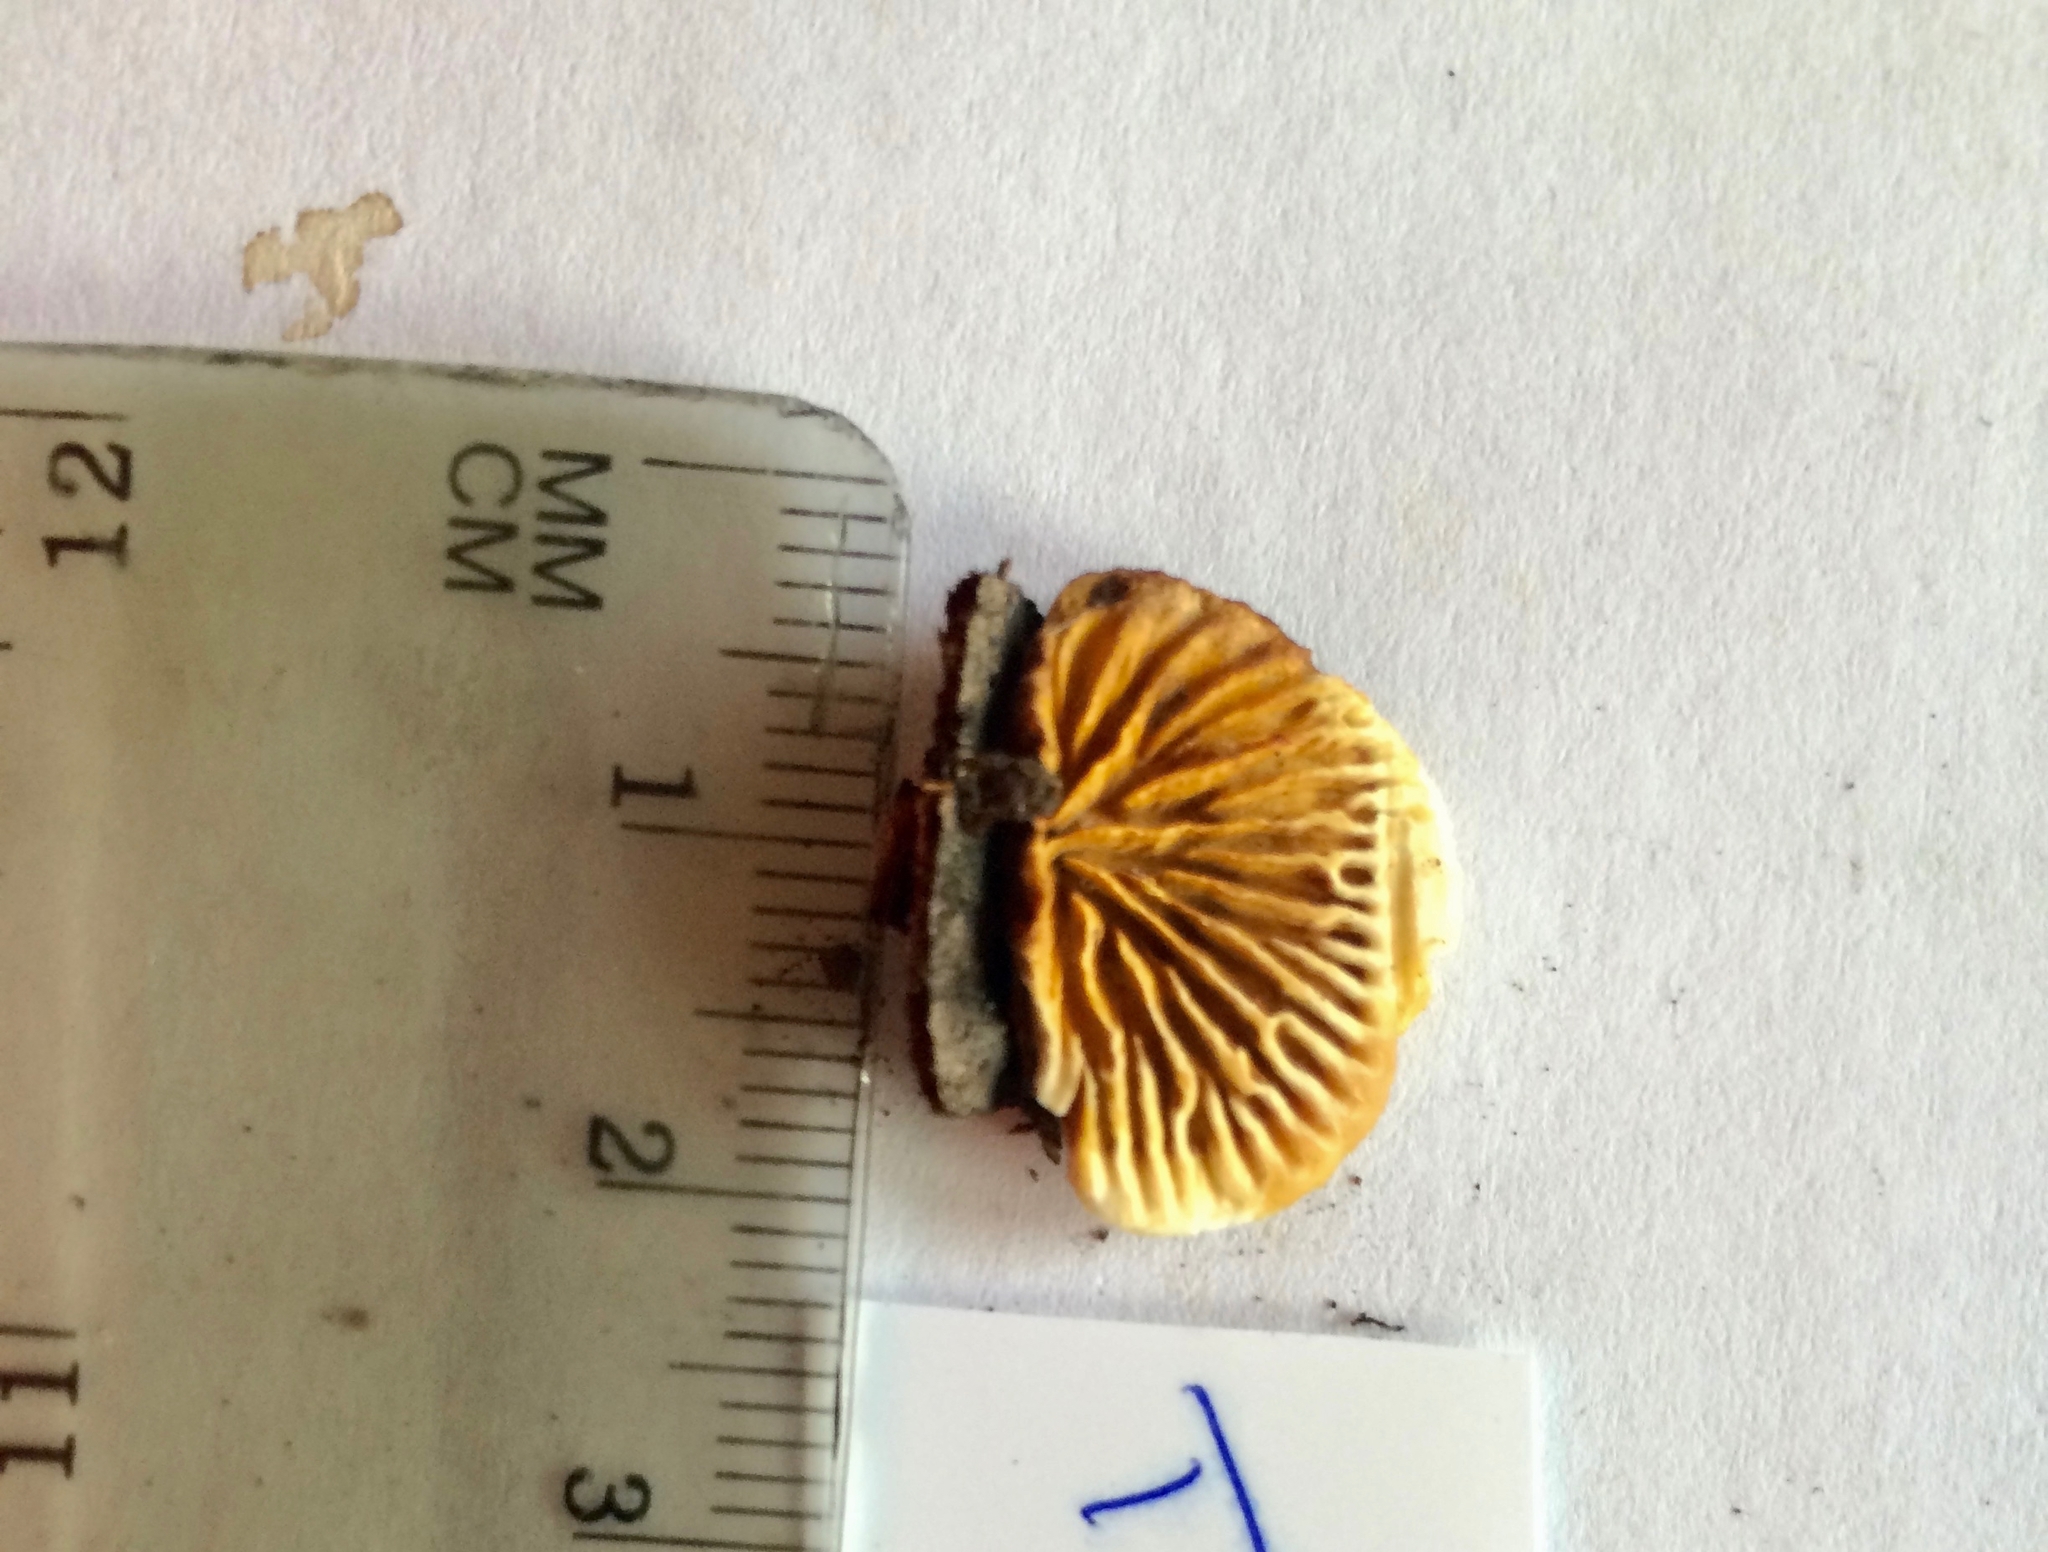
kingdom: Fungi
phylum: Basidiomycota
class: Agaricomycetes
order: Gloeophyllales
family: Gloeophyllaceae
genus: Gloeophyllum
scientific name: Gloeophyllum sepiarium
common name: Conifer mazegill
